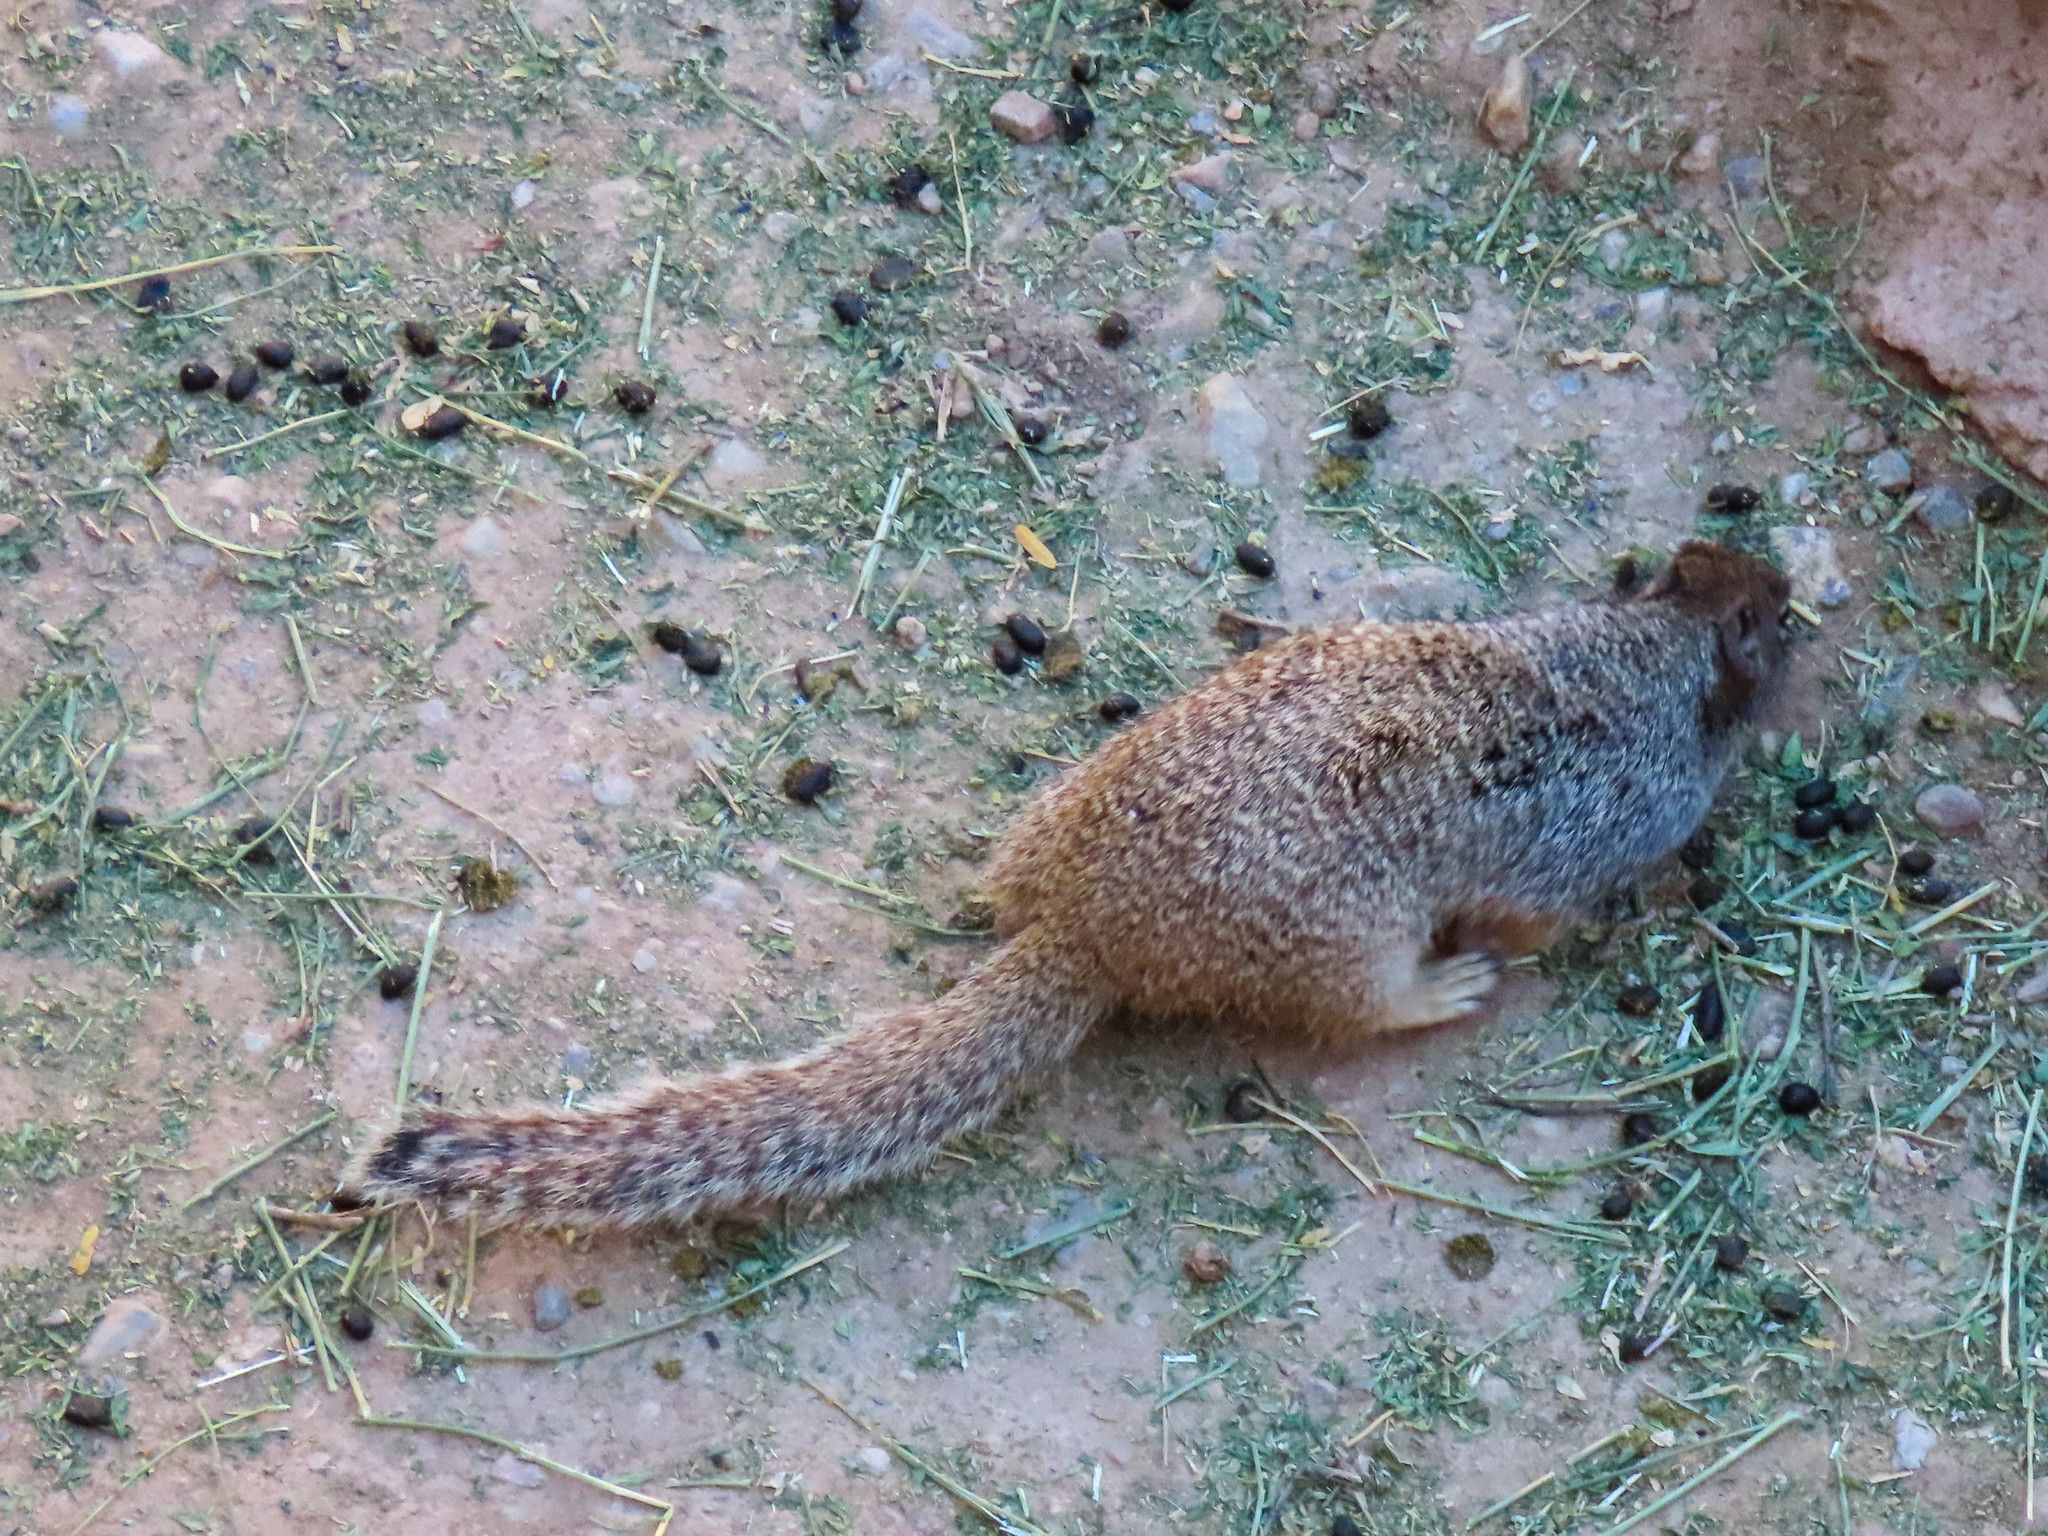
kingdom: Animalia
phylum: Chordata
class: Mammalia
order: Rodentia
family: Sciuridae
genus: Otospermophilus
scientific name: Otospermophilus variegatus
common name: Rock squirrel
